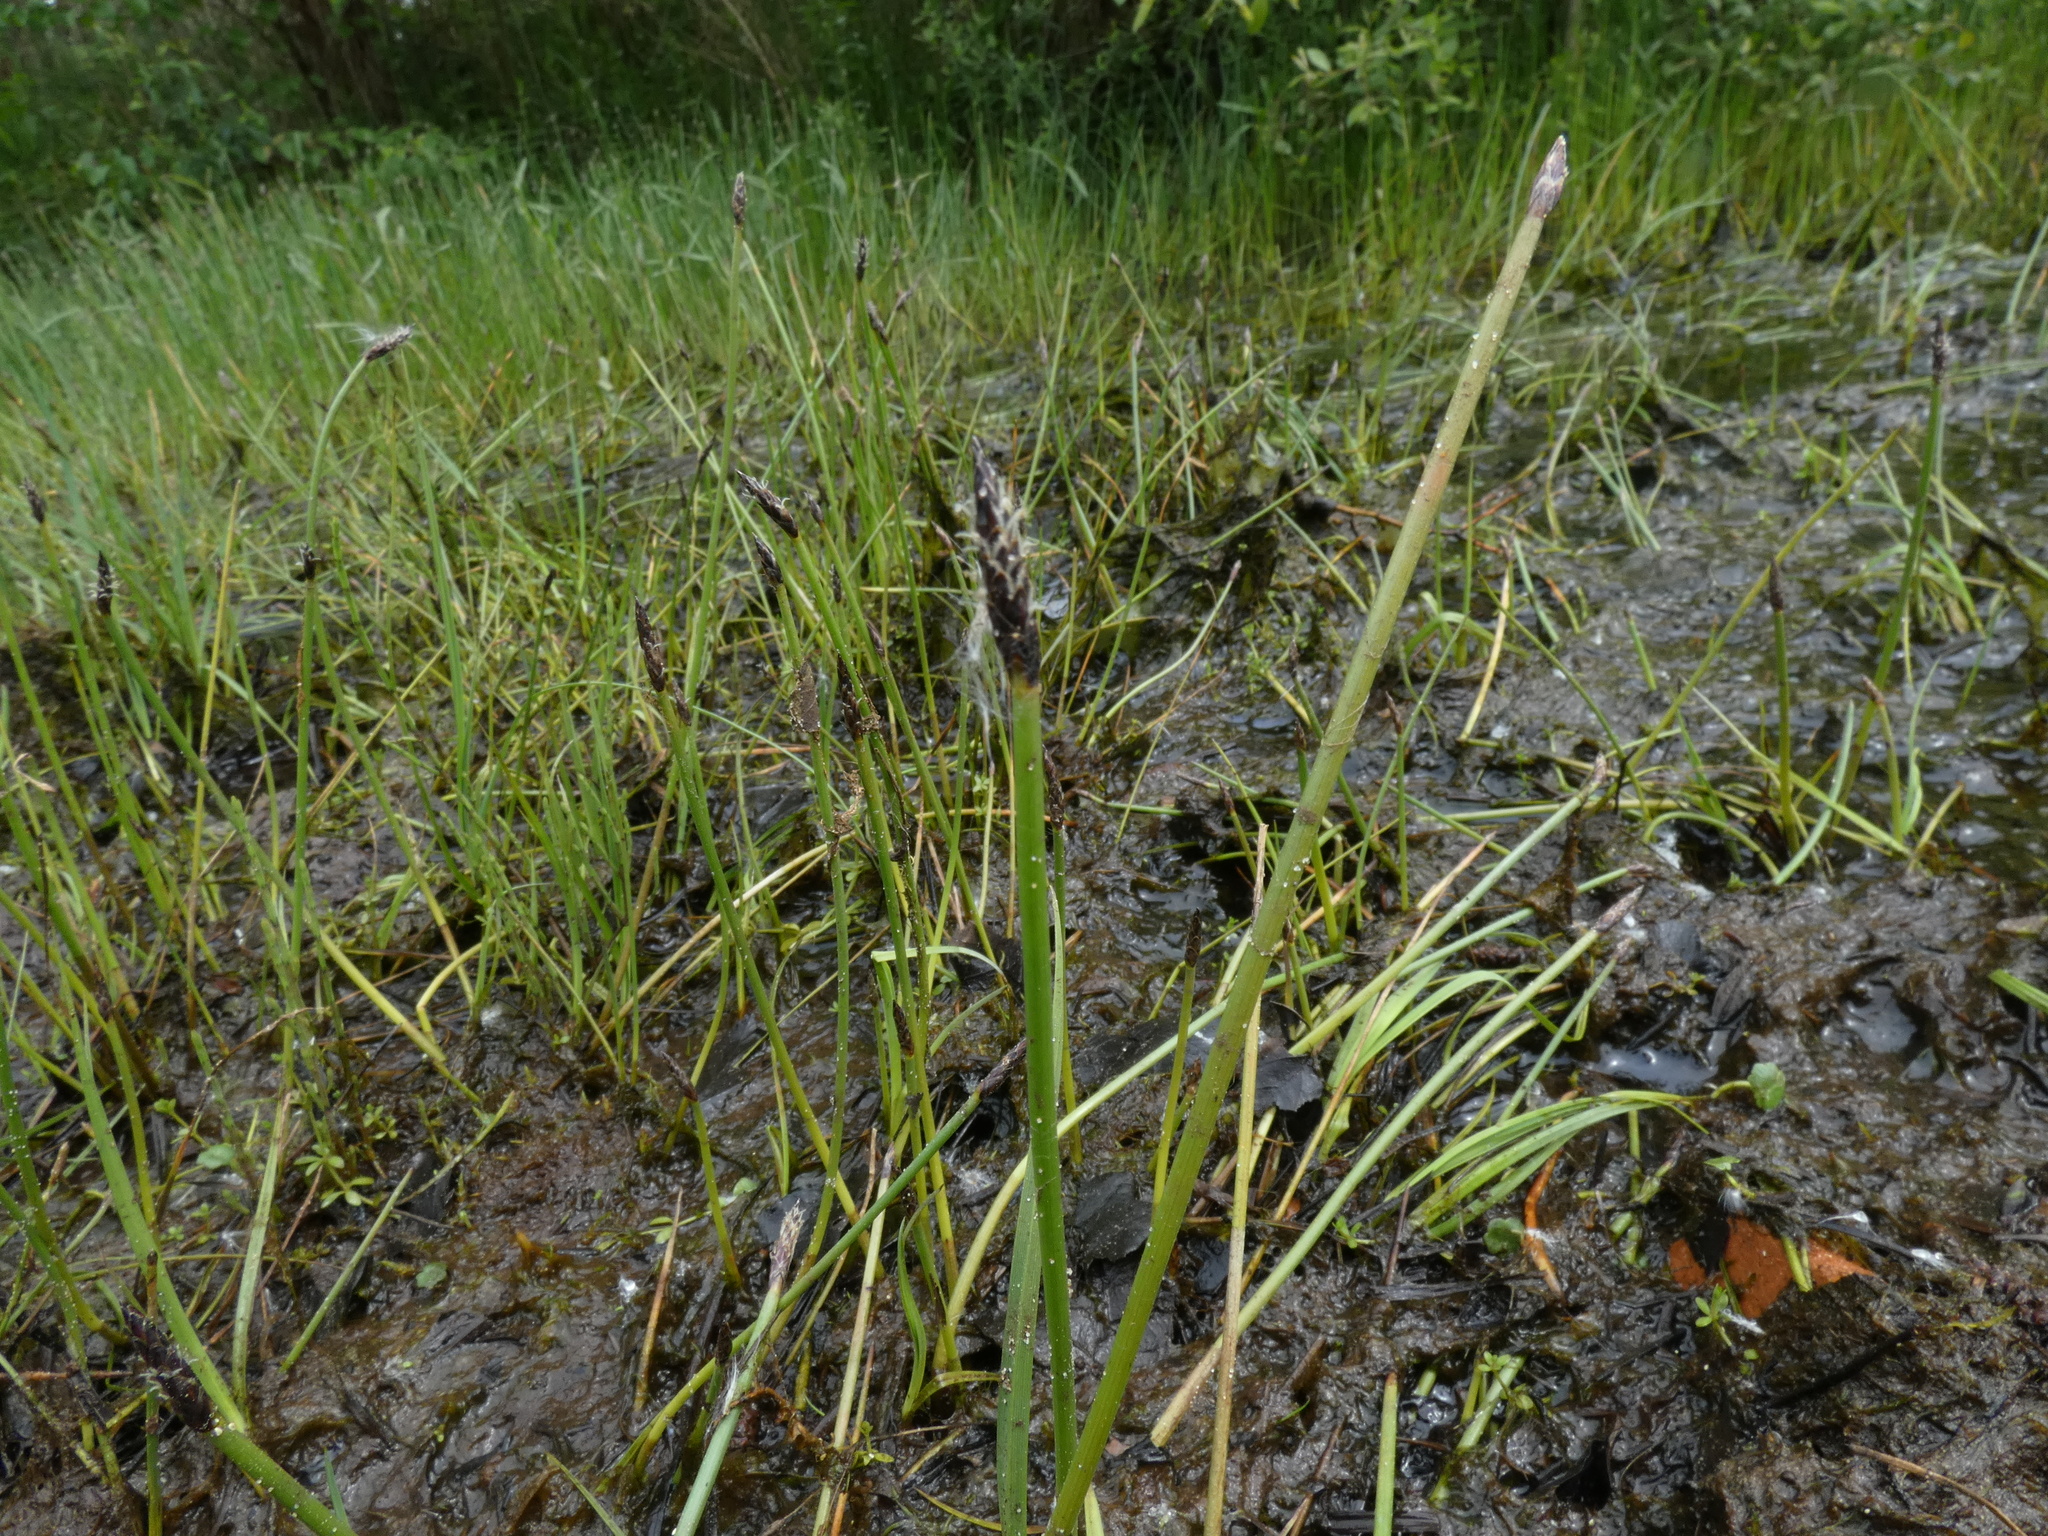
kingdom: Plantae
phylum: Tracheophyta
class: Liliopsida
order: Poales
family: Cyperaceae
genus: Eleocharis
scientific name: Eleocharis palustris
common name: Common spike-rush
